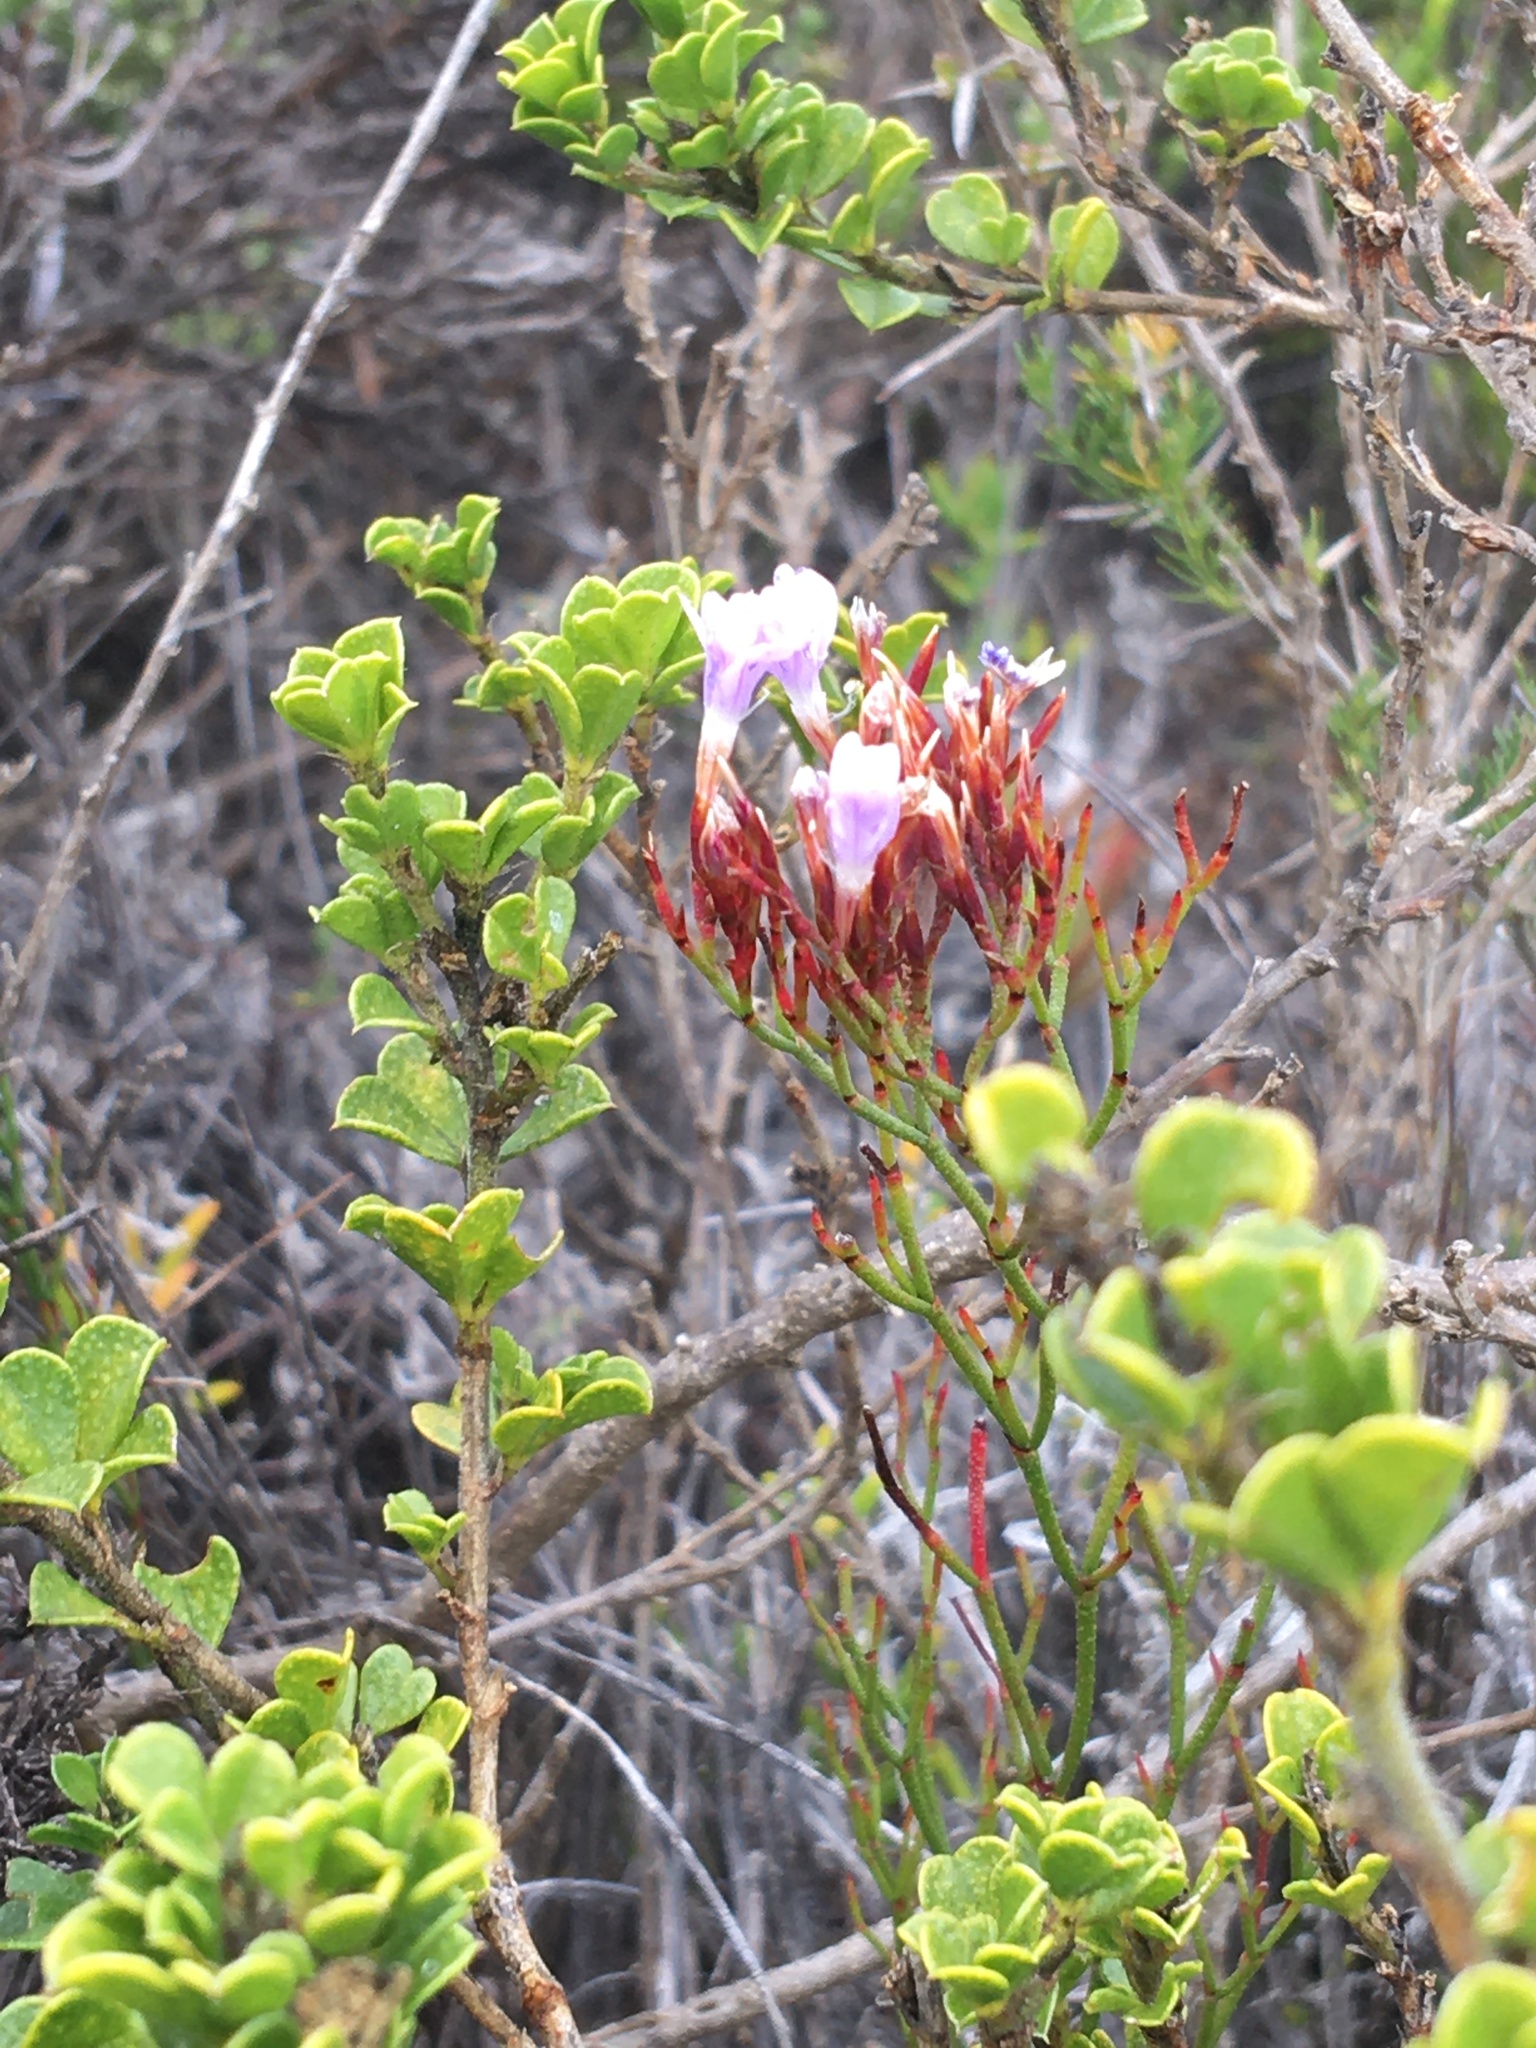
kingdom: Plantae
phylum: Tracheophyta
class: Magnoliopsida
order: Caryophyllales
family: Plumbaginaceae
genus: Limonium
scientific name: Limonium scabrum
